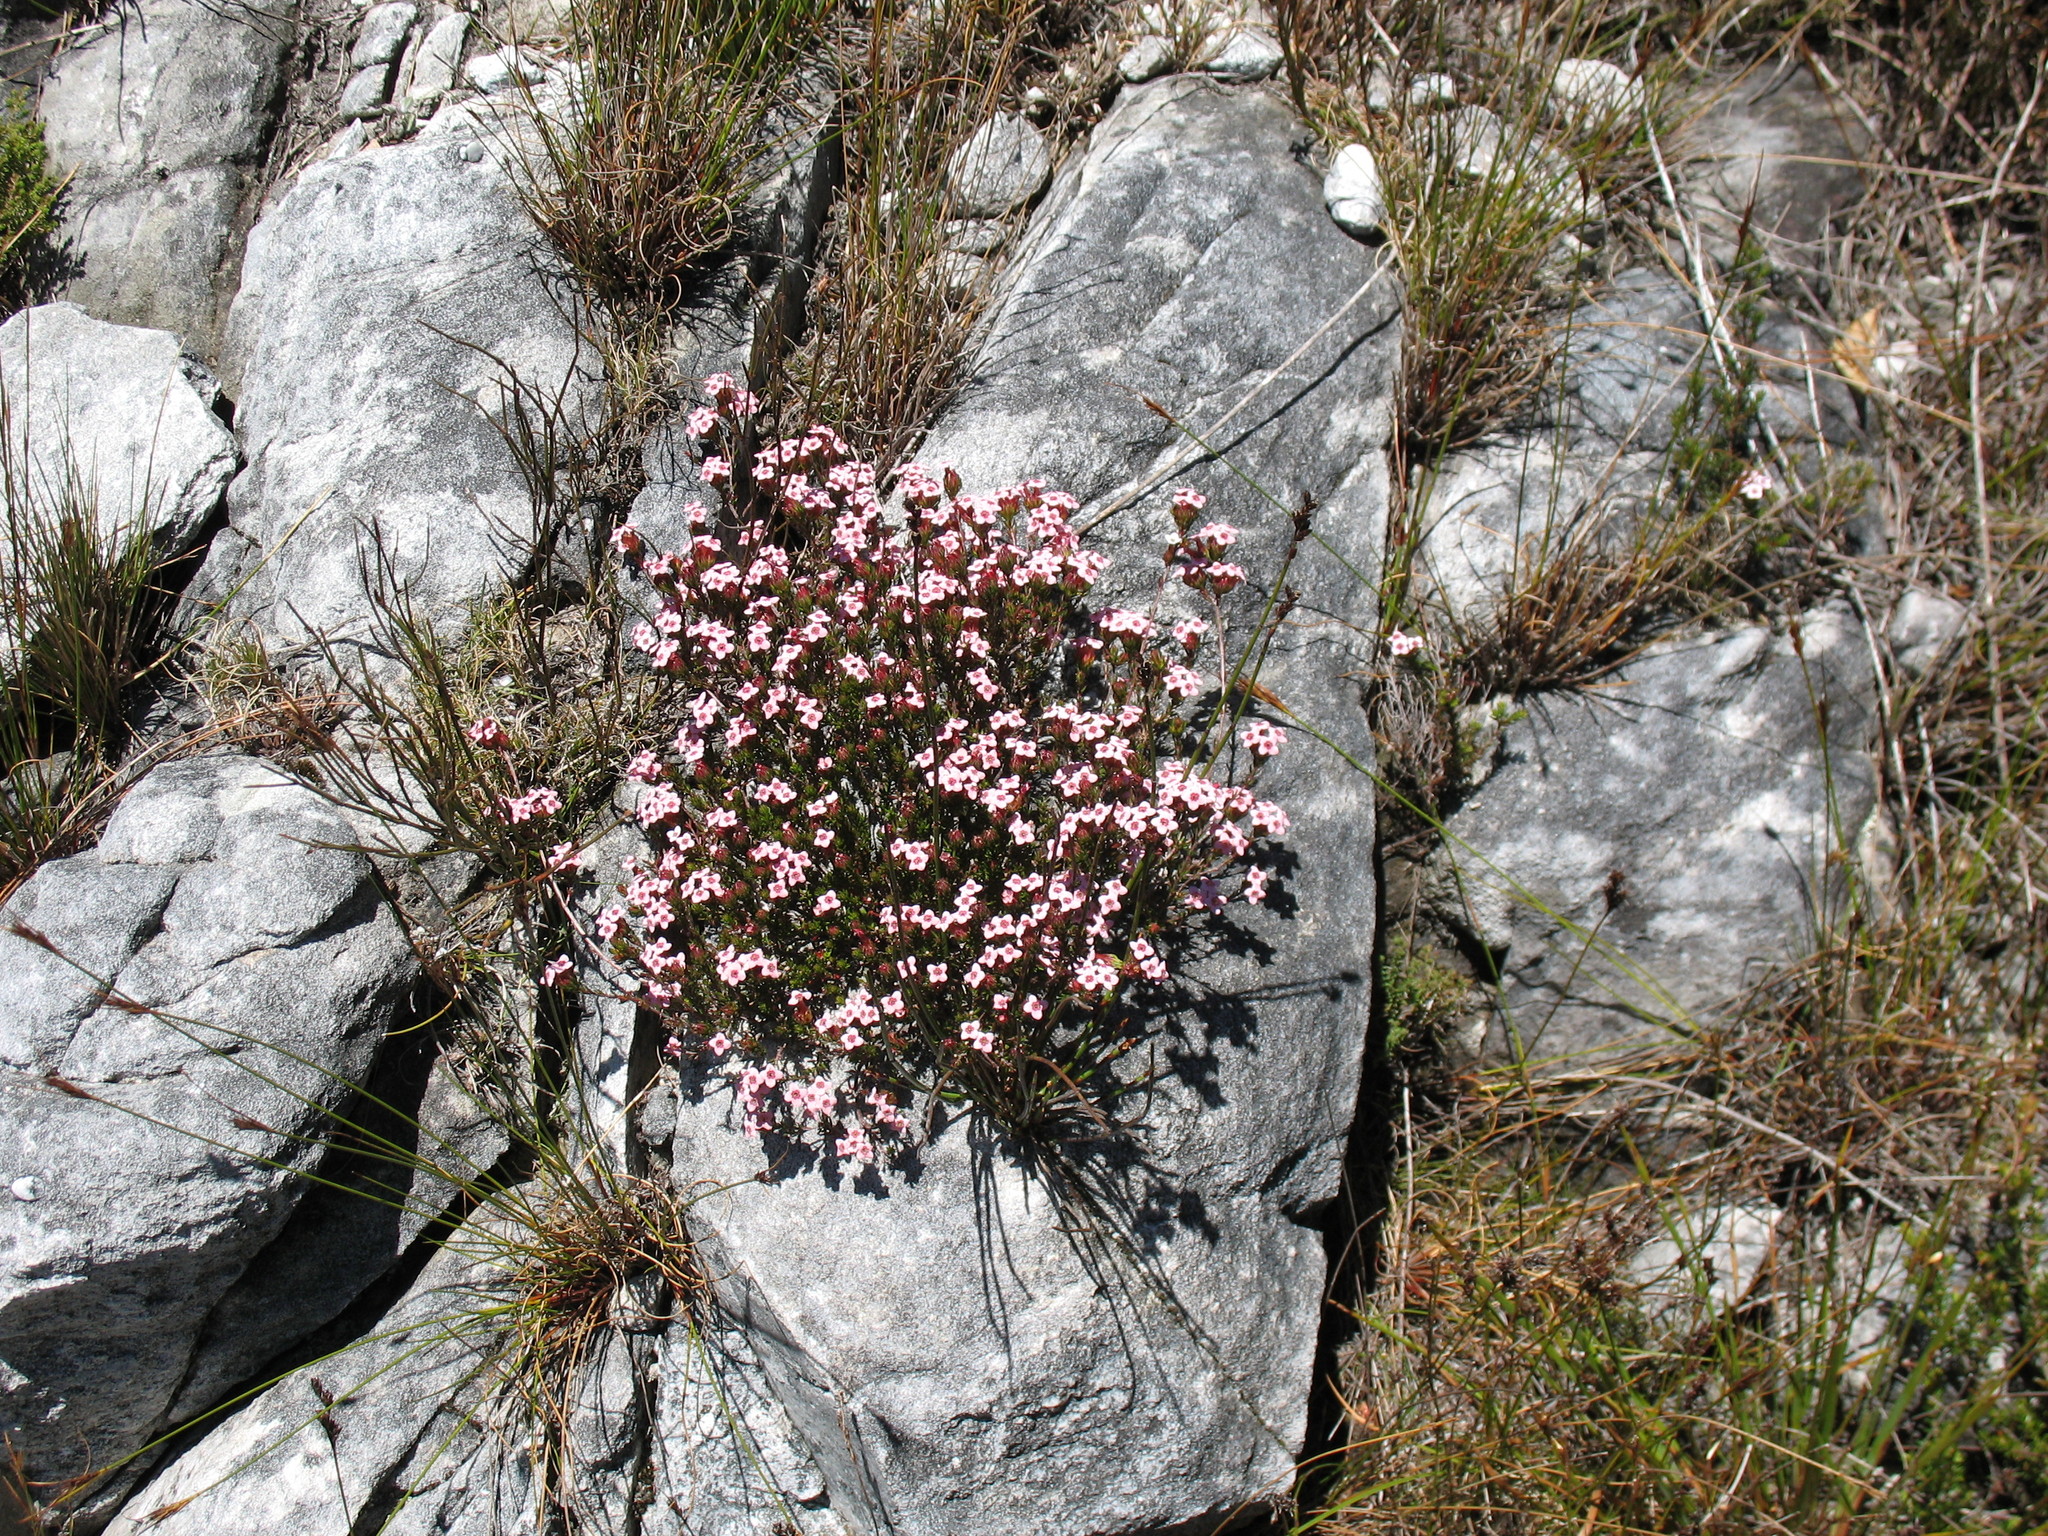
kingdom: Plantae
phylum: Tracheophyta
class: Magnoliopsida
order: Ericales
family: Ericaceae
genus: Erica
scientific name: Erica fastigiata
